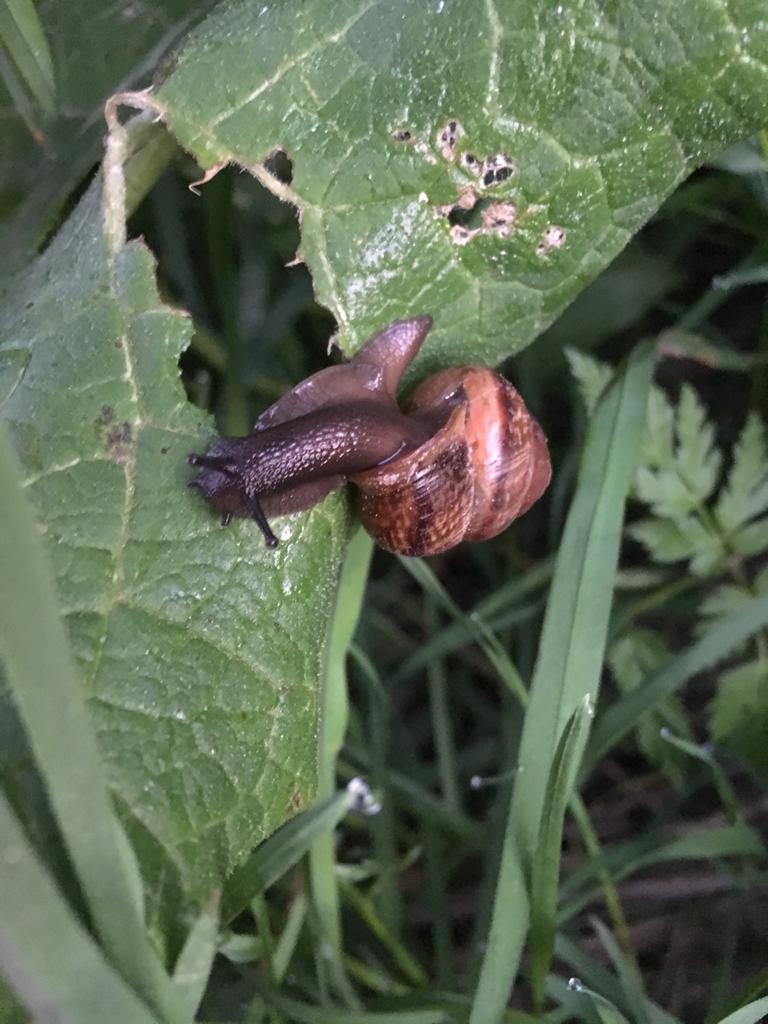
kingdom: Animalia
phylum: Mollusca
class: Gastropoda
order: Stylommatophora
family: Helicidae
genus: Arianta
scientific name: Arianta arbustorum
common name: Copse snail
